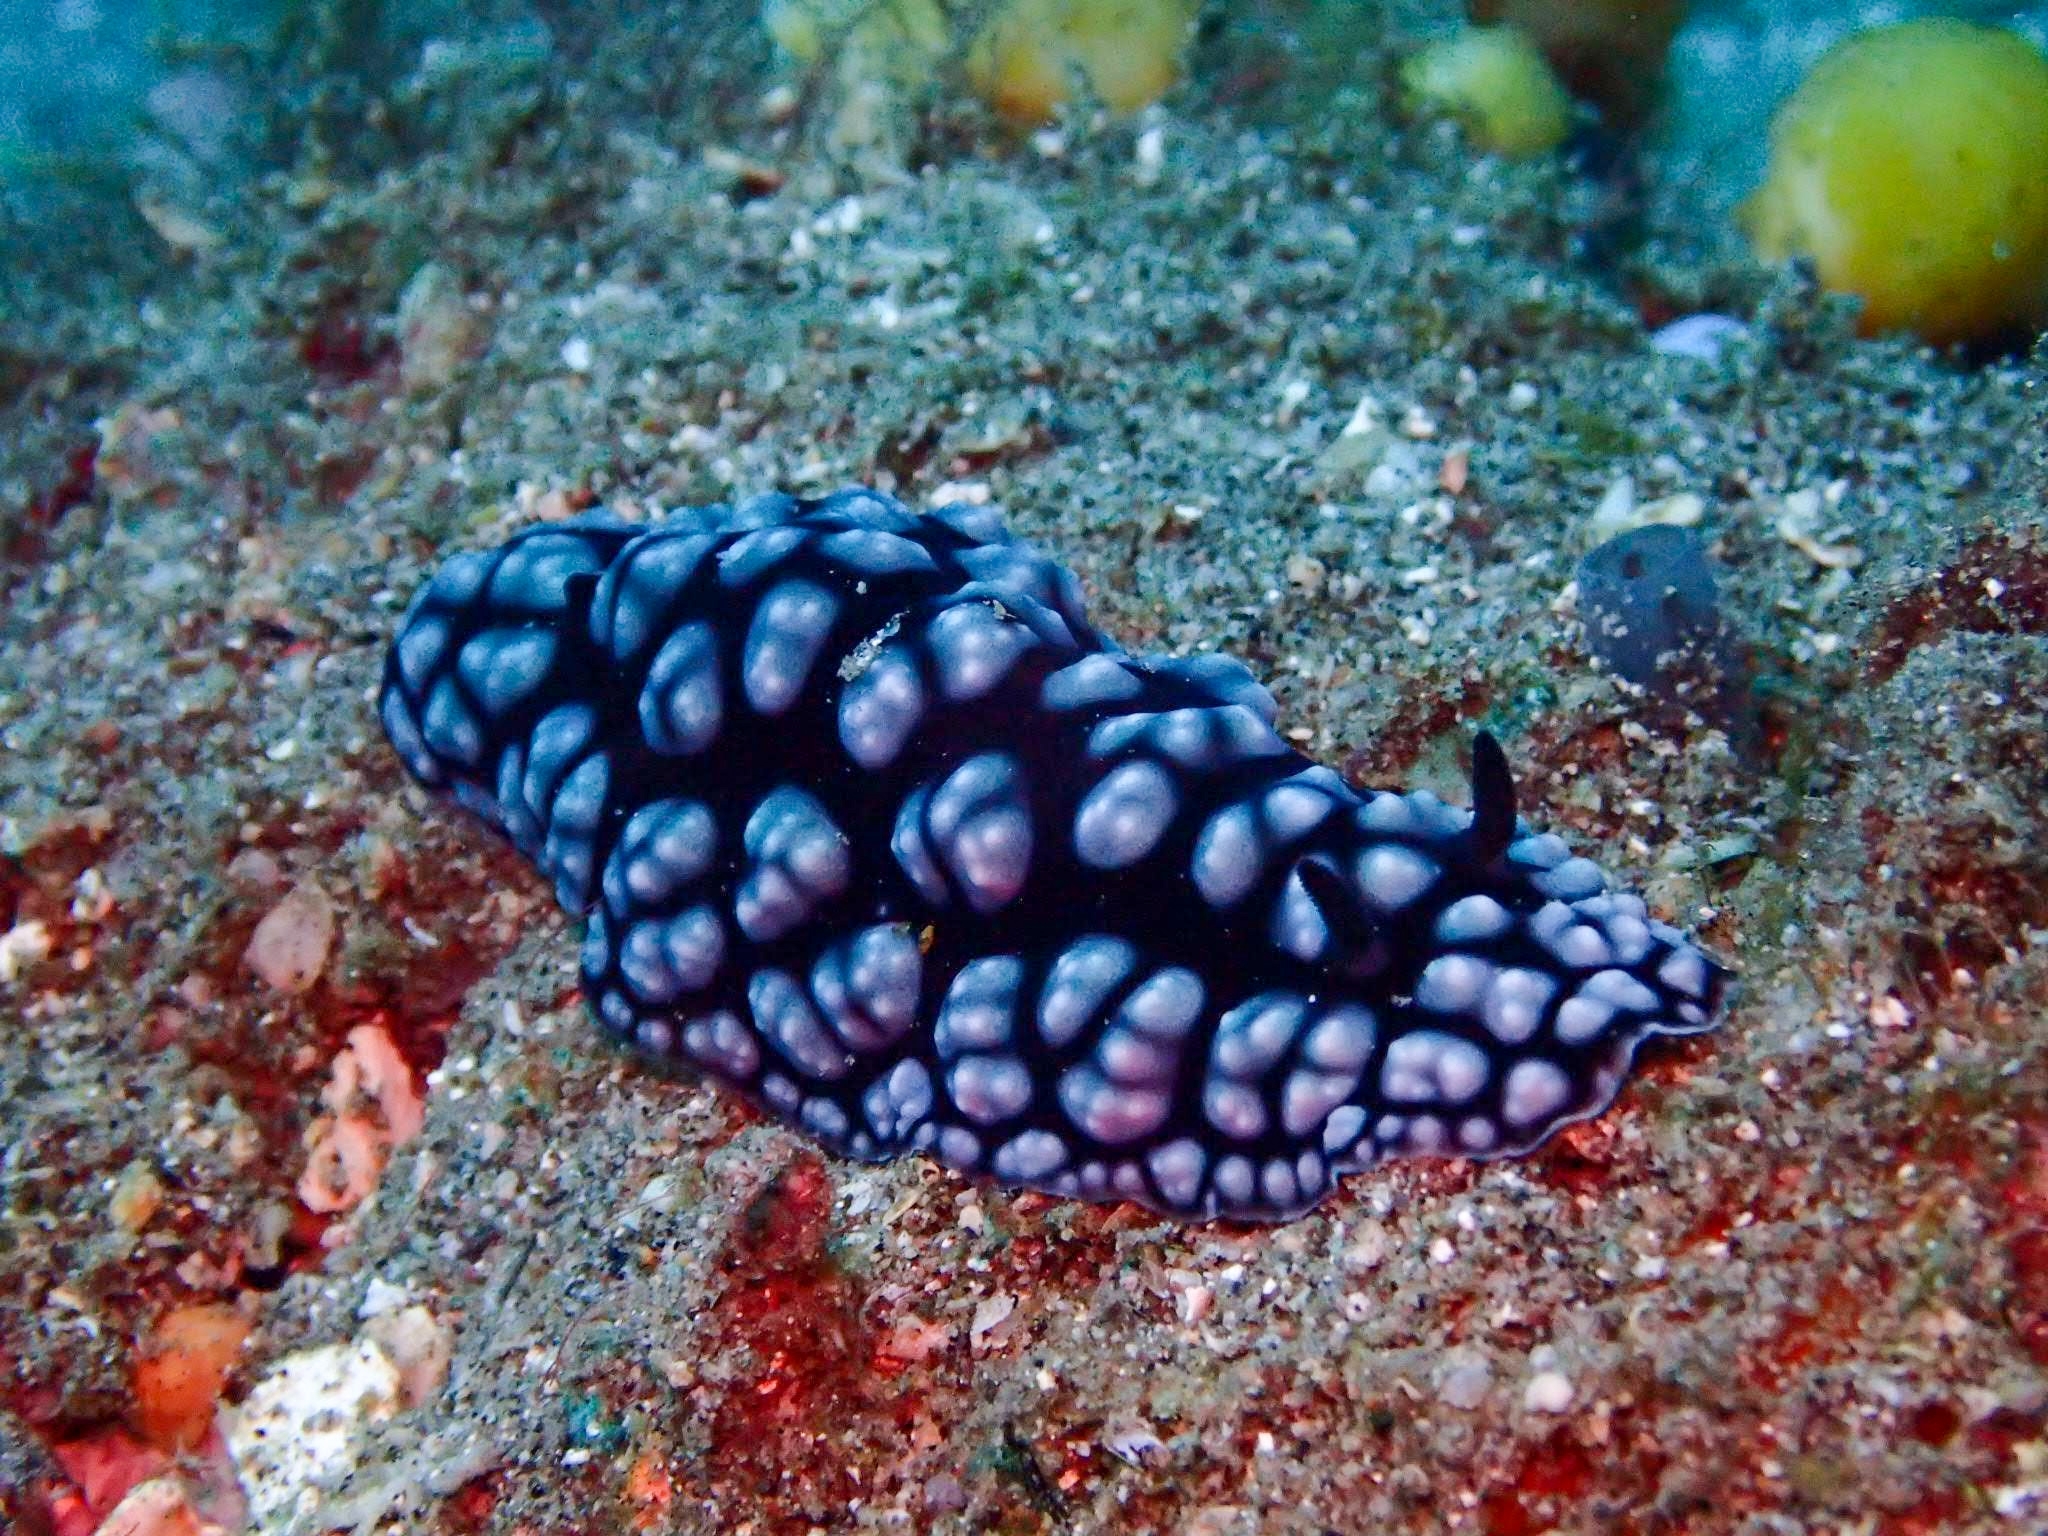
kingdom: Animalia
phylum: Mollusca
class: Gastropoda
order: Nudibranchia
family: Phyllidiidae
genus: Phyllidiella
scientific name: Phyllidiella pustulosa
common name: Pustular phyllidia
